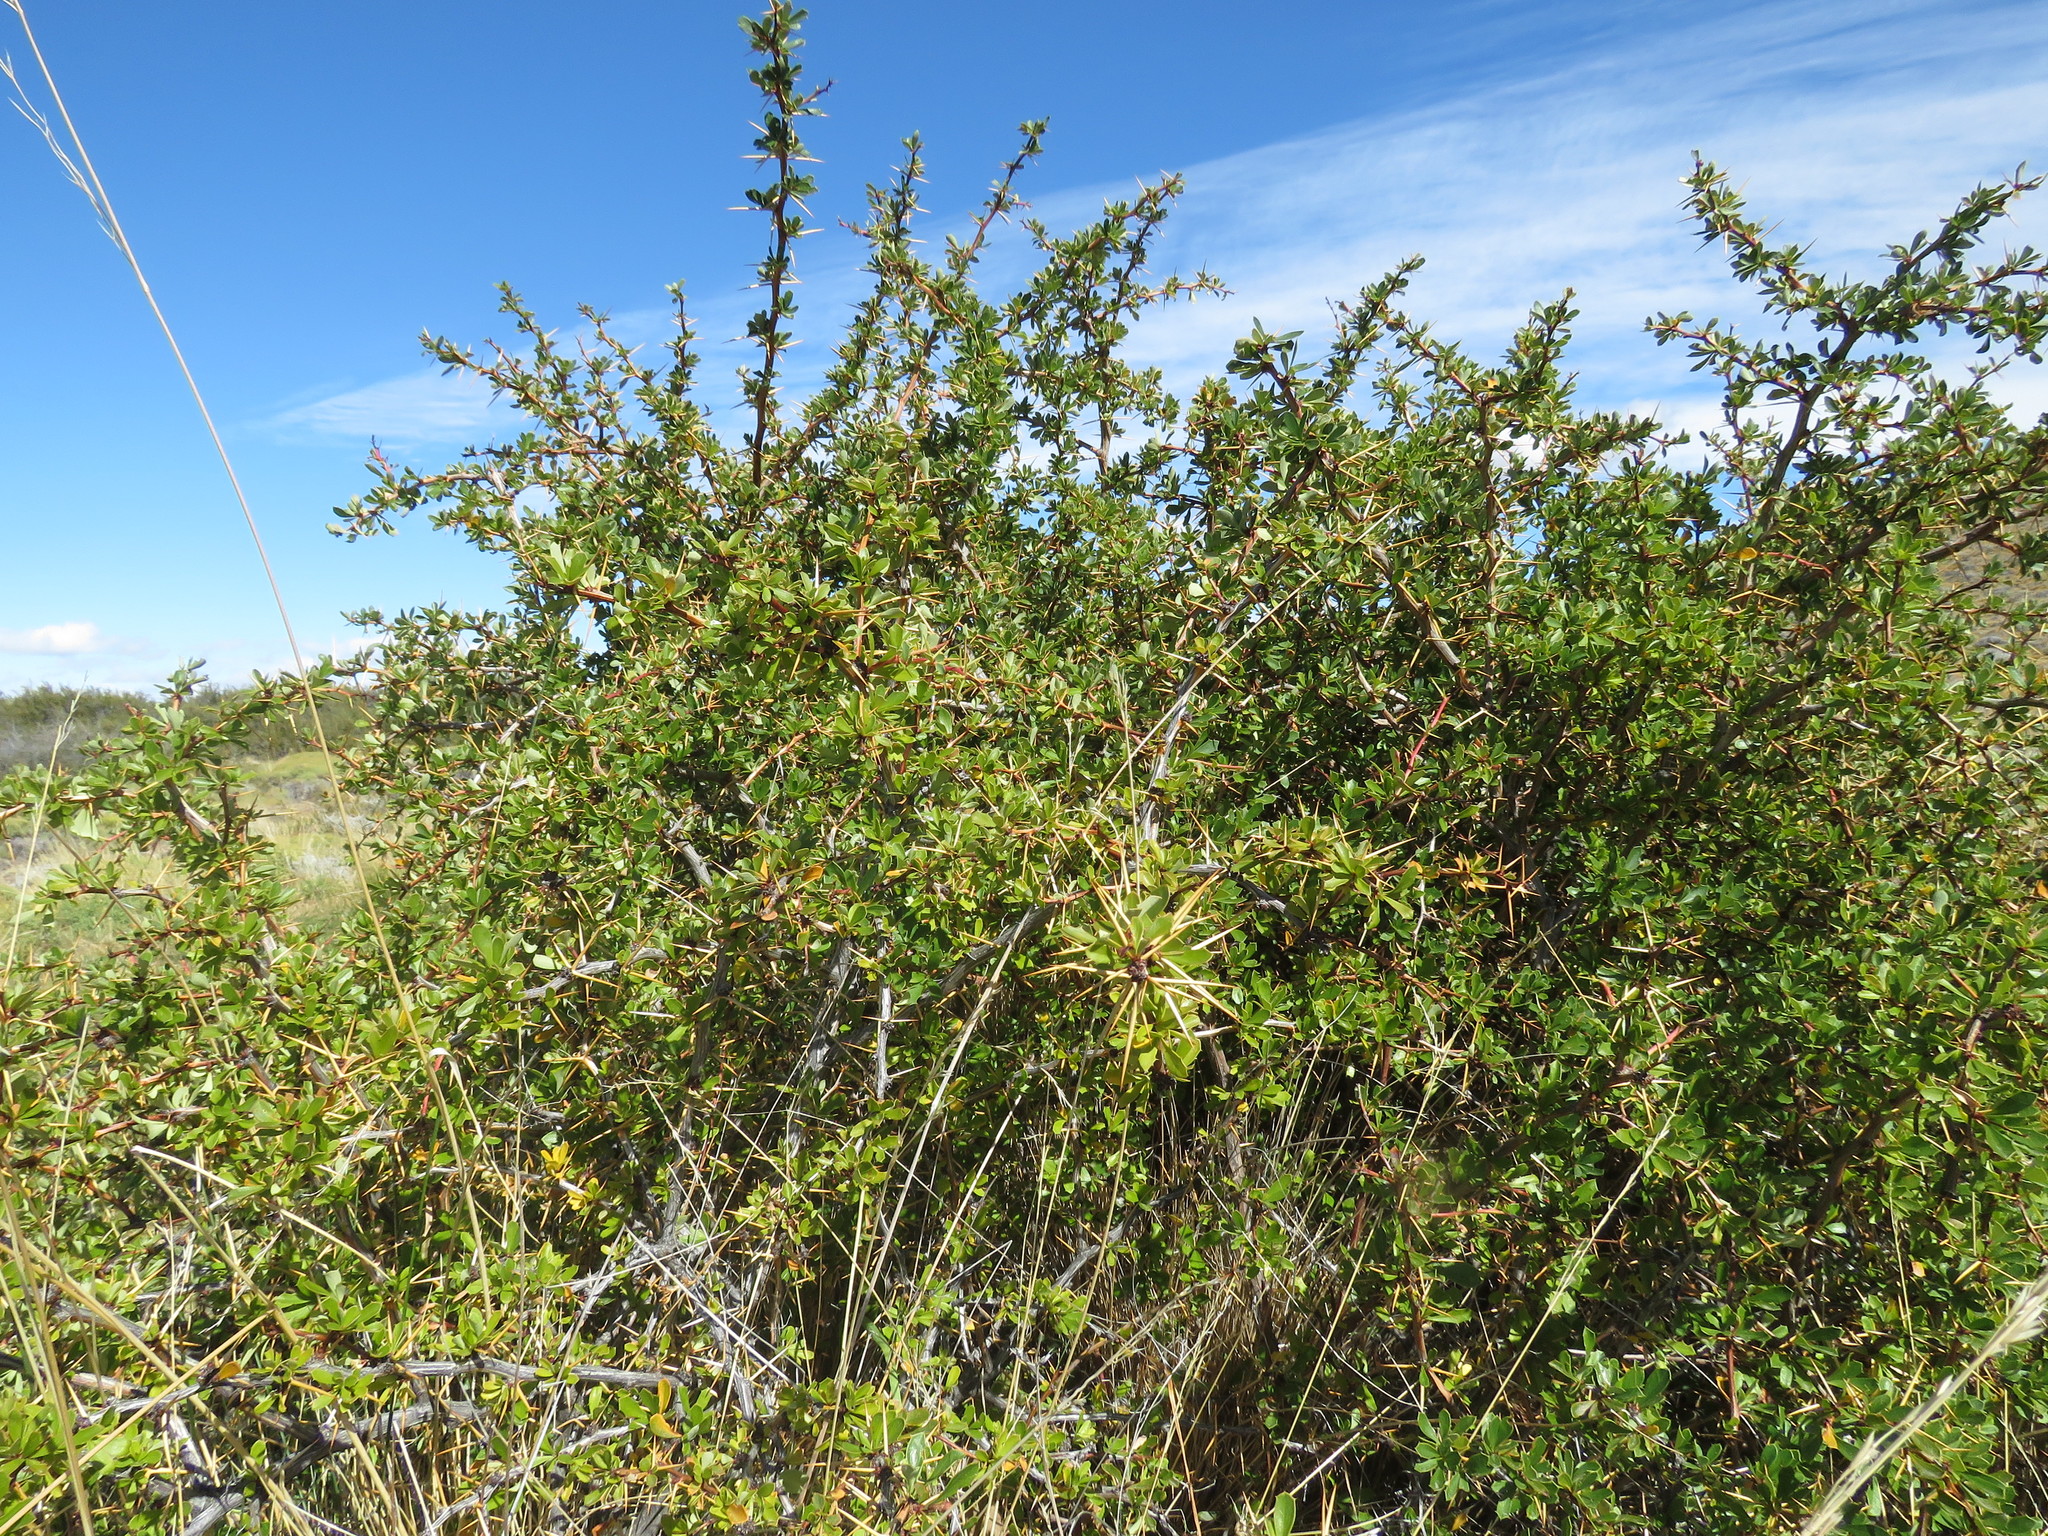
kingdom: Plantae
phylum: Tracheophyta
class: Magnoliopsida
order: Ranunculales
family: Berberidaceae
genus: Berberis
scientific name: Berberis microphylla
